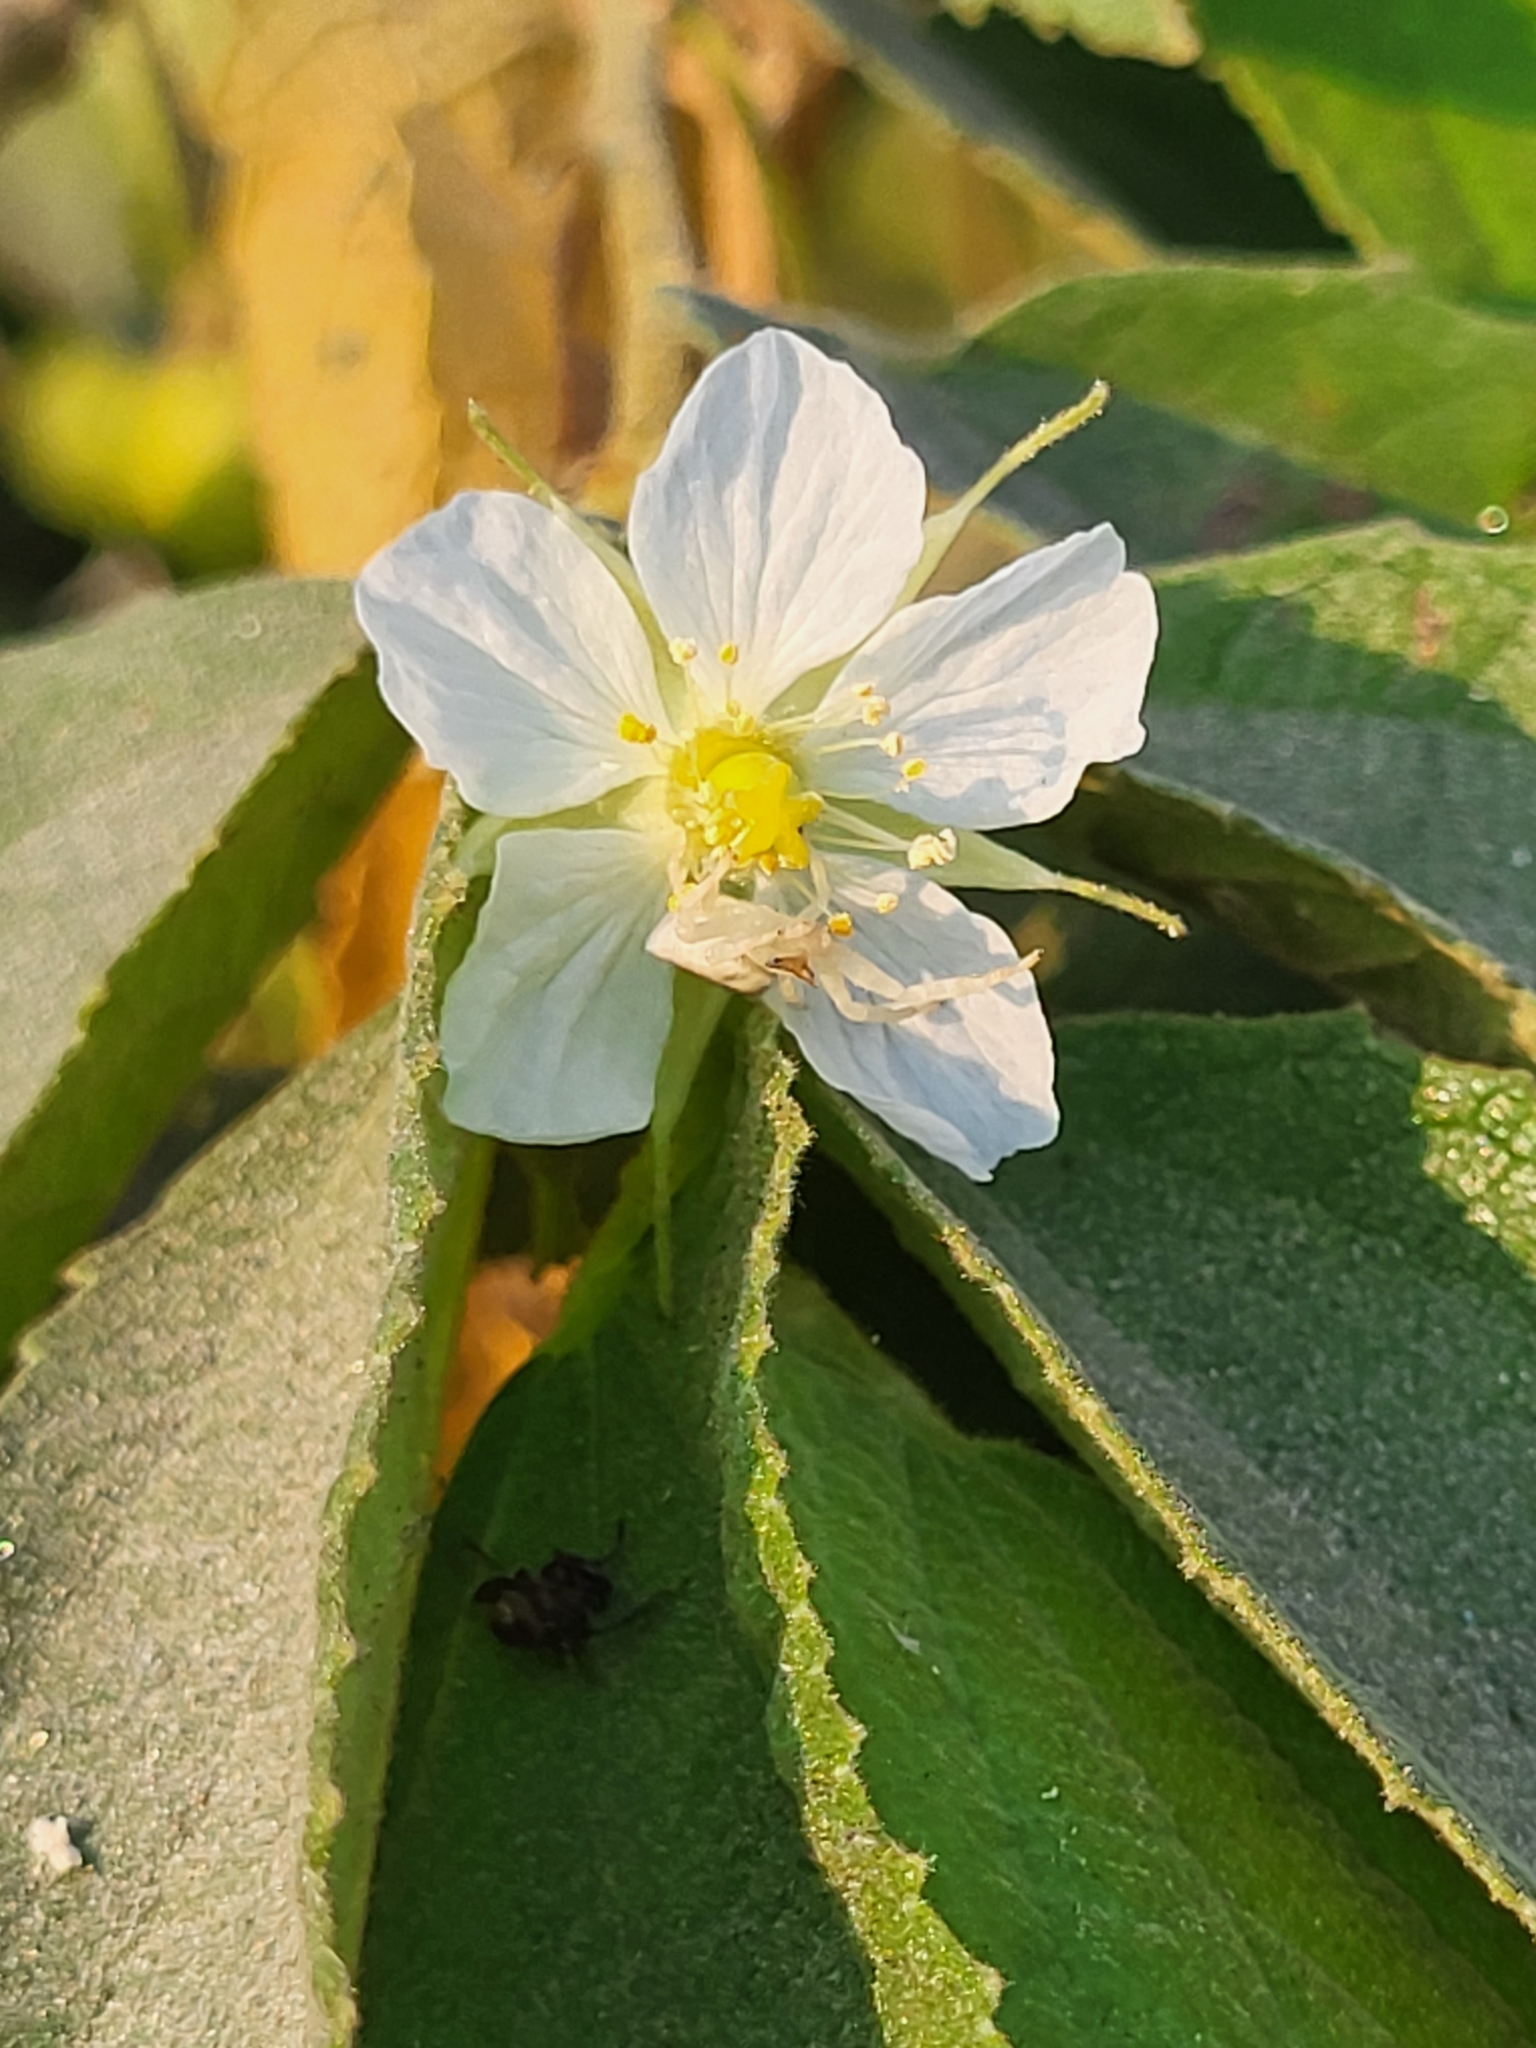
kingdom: Plantae
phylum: Tracheophyta
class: Magnoliopsida
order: Malvales
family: Muntingiaceae
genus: Muntingia
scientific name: Muntingia calabura
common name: Strawberrytree
